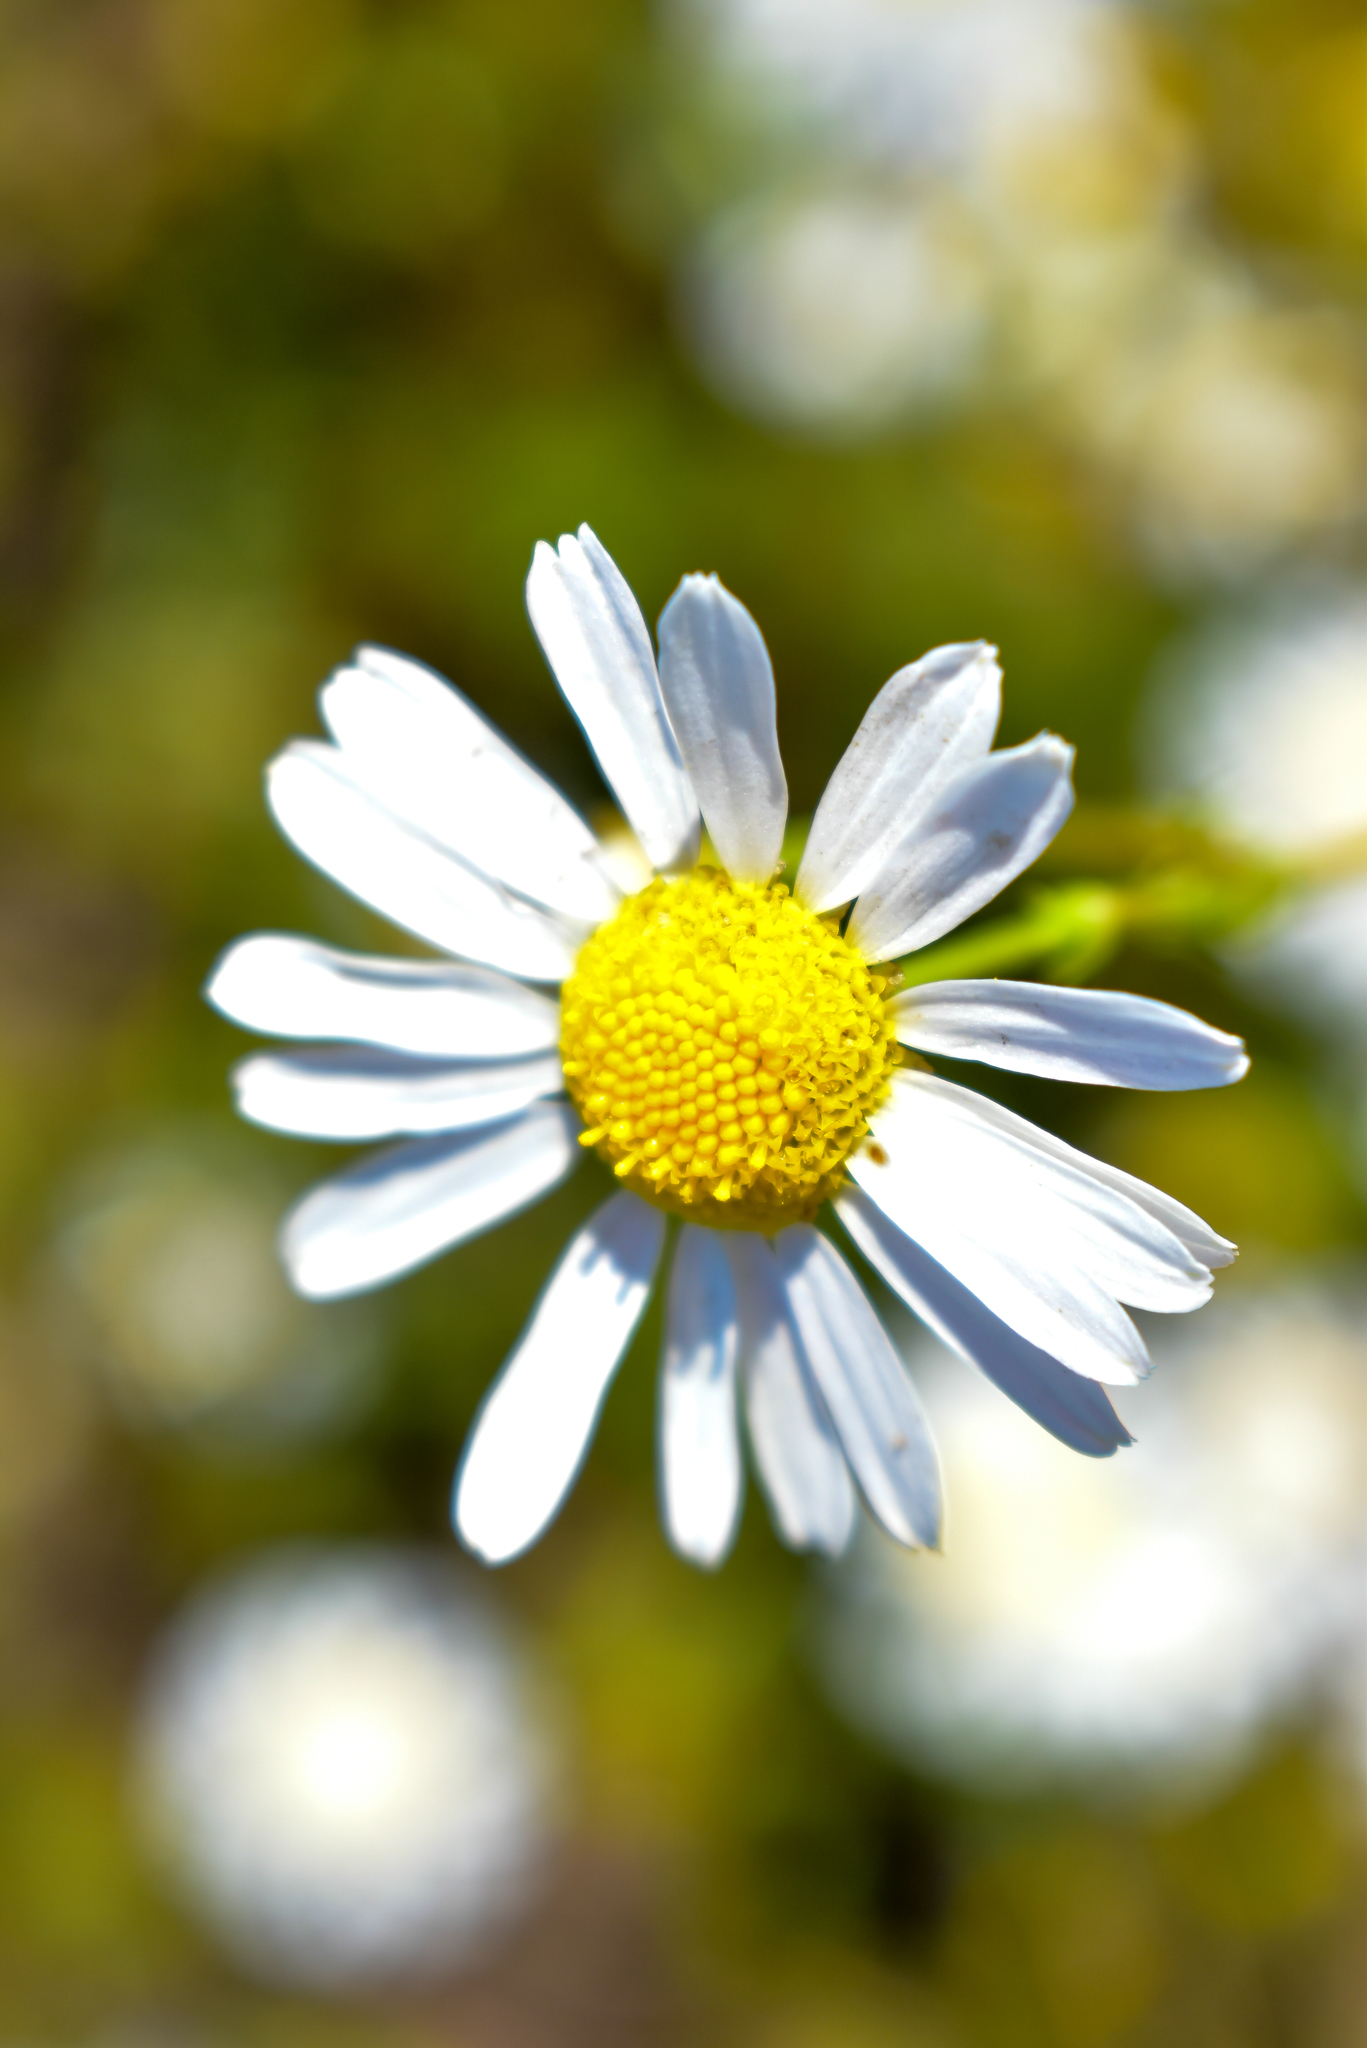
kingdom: Plantae
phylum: Tracheophyta
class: Magnoliopsida
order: Asterales
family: Asteraceae
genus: Tripleurospermum
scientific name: Tripleurospermum inodorum
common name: Scentless mayweed
